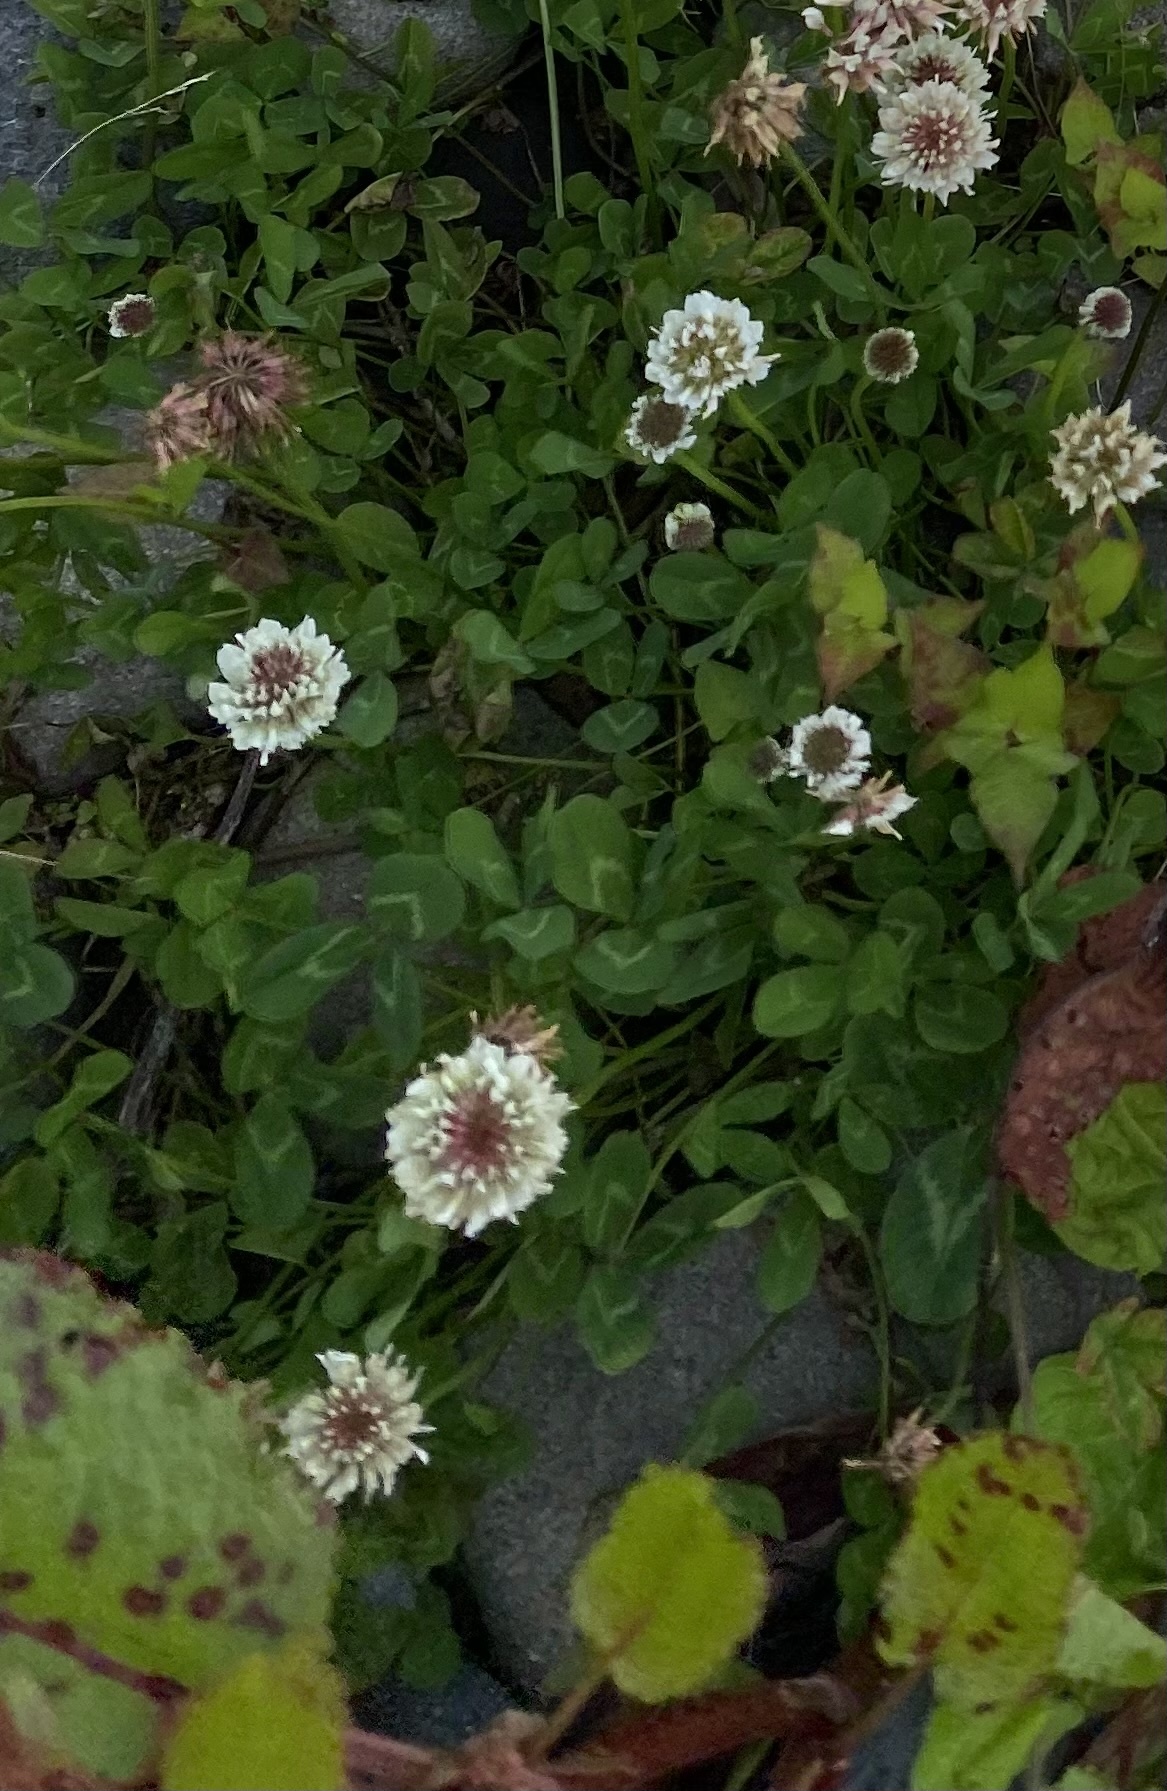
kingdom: Plantae
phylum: Tracheophyta
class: Magnoliopsida
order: Fabales
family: Fabaceae
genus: Trifolium
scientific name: Trifolium repens
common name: White clover
